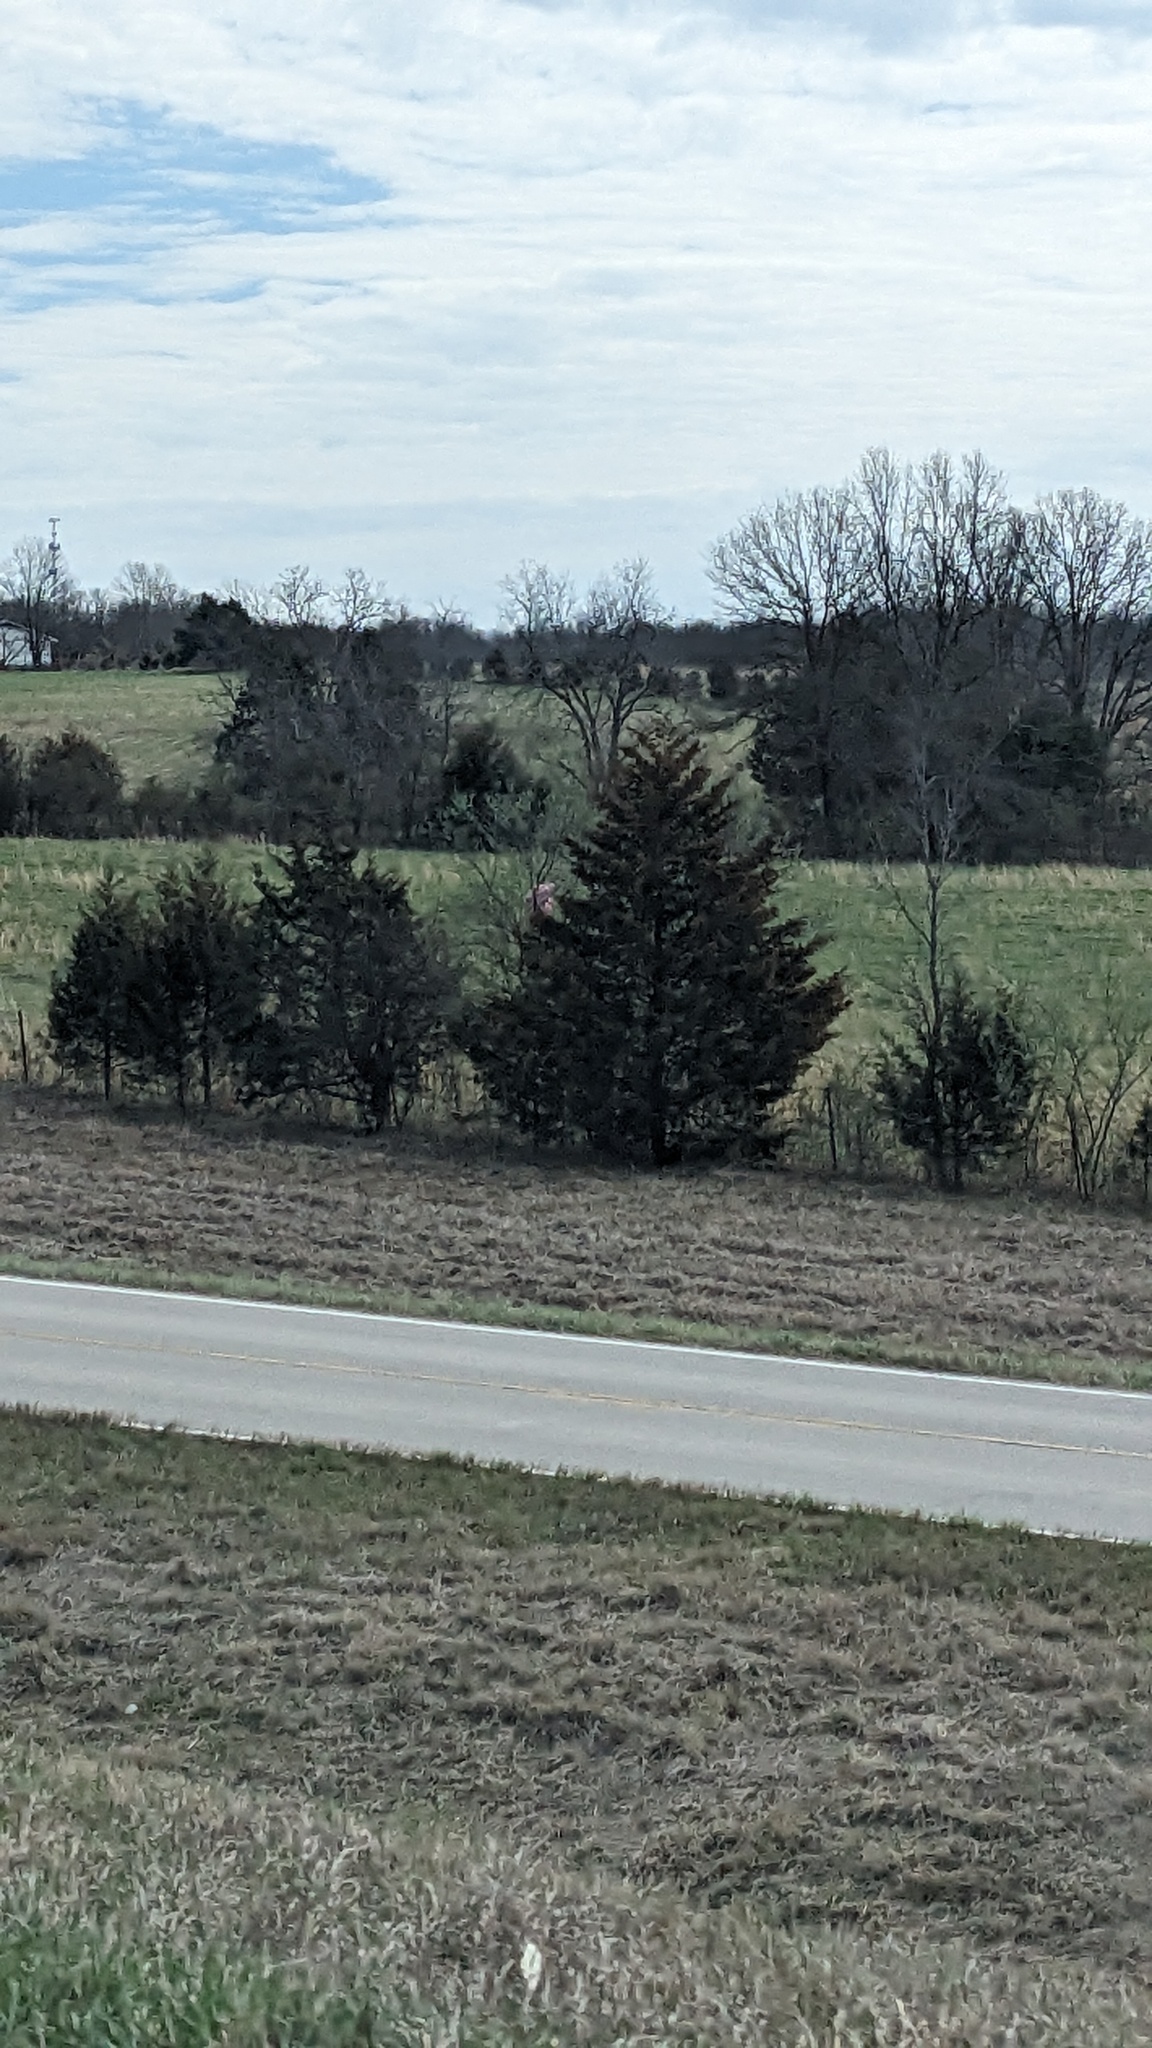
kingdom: Plantae
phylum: Tracheophyta
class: Pinopsida
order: Pinales
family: Cupressaceae
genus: Juniperus
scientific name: Juniperus virginiana
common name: Red juniper
